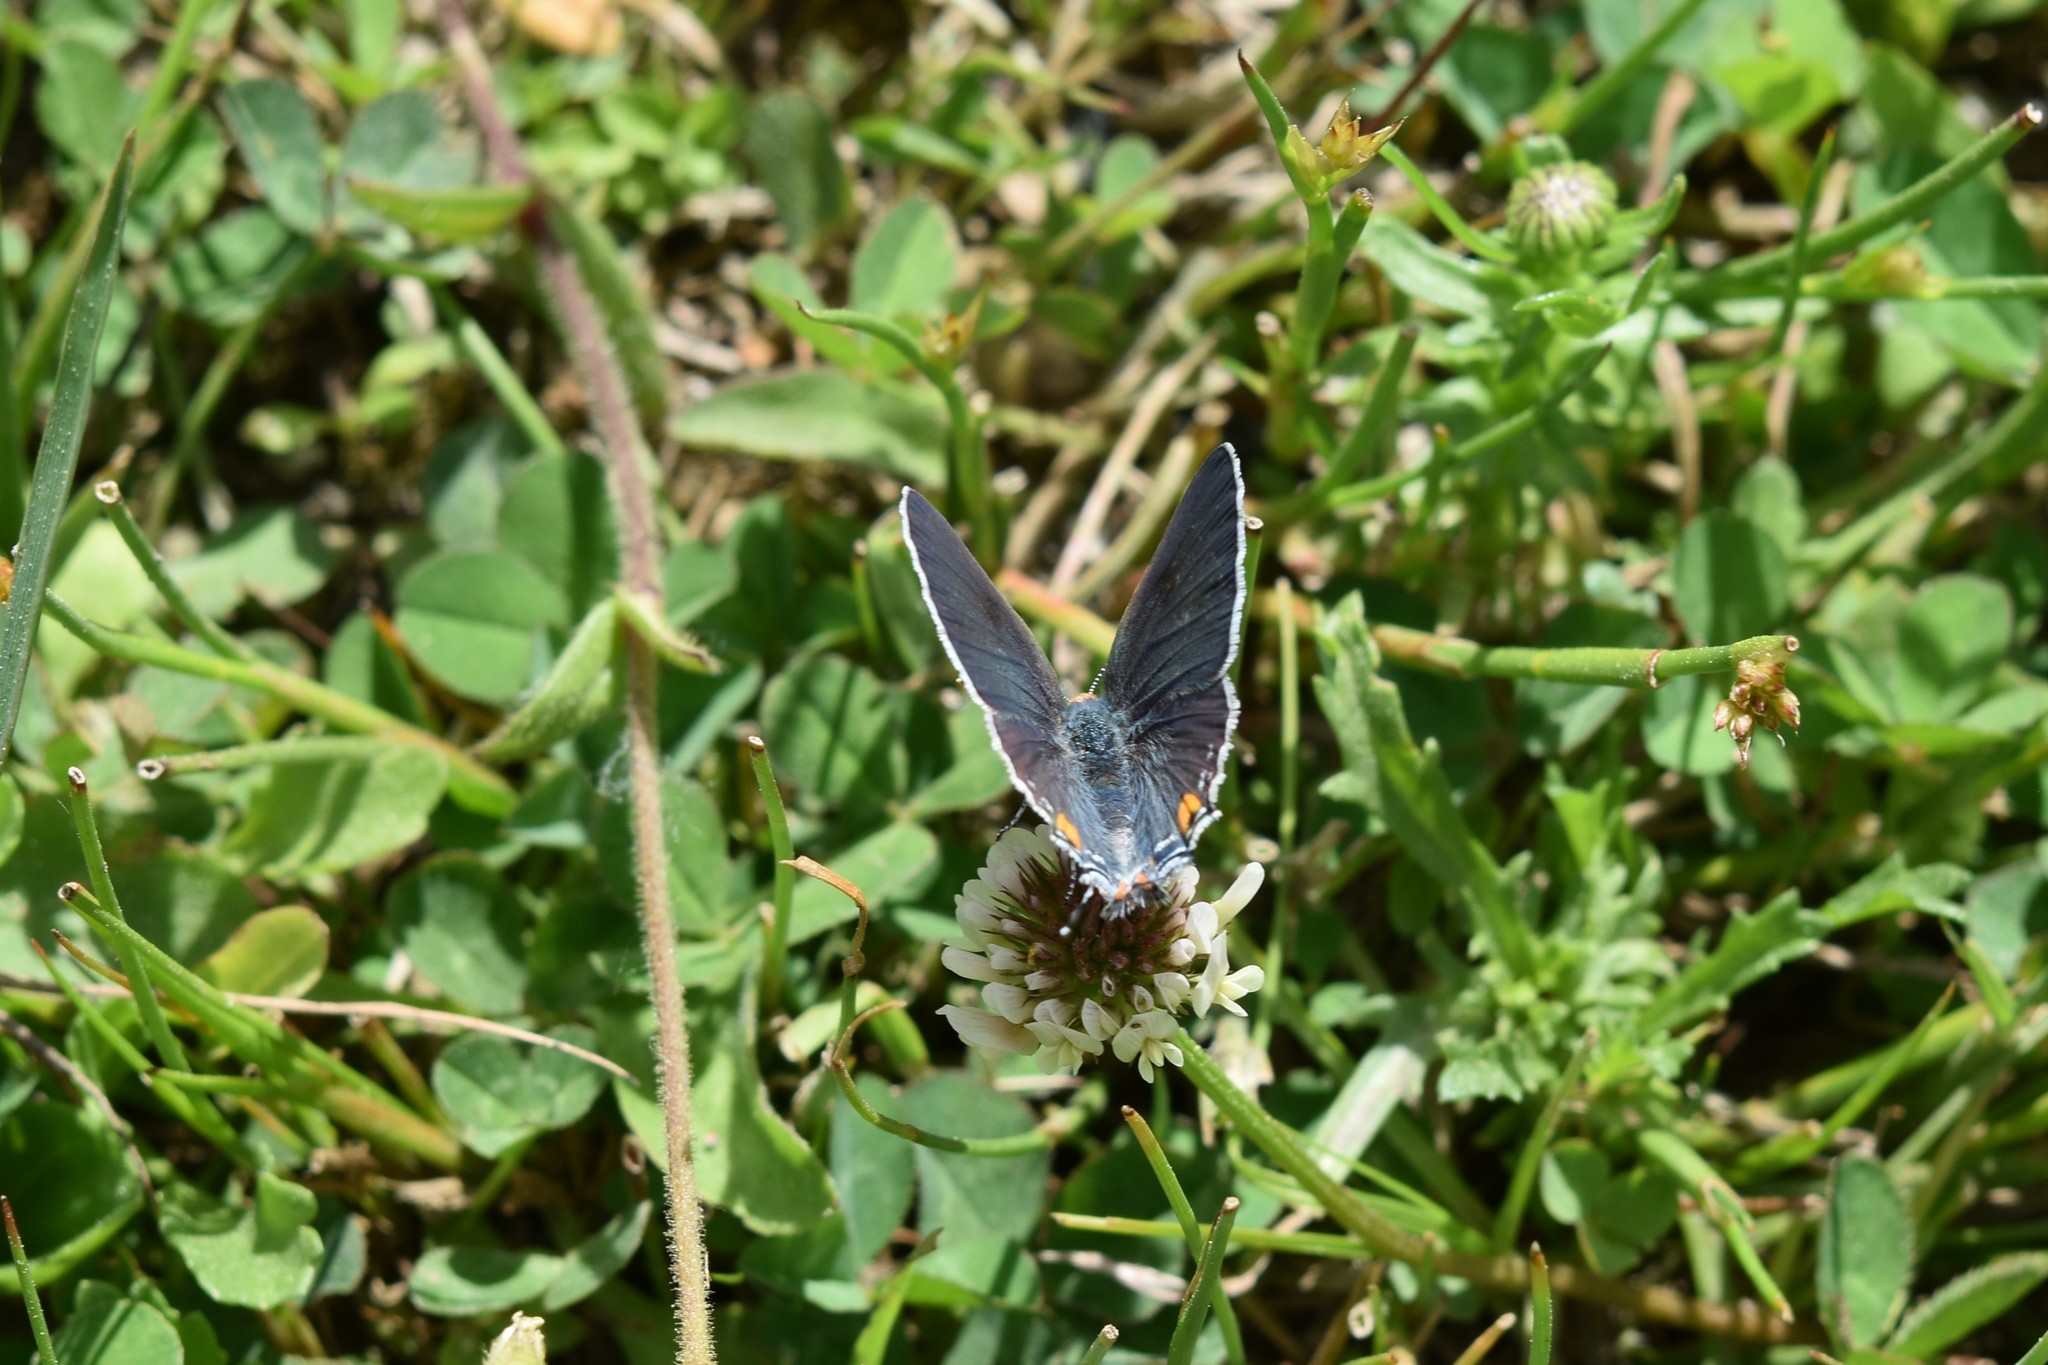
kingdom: Animalia
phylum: Arthropoda
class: Insecta
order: Lepidoptera
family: Lycaenidae
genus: Strymon
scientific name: Strymon melinus
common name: Gray hairstreak
